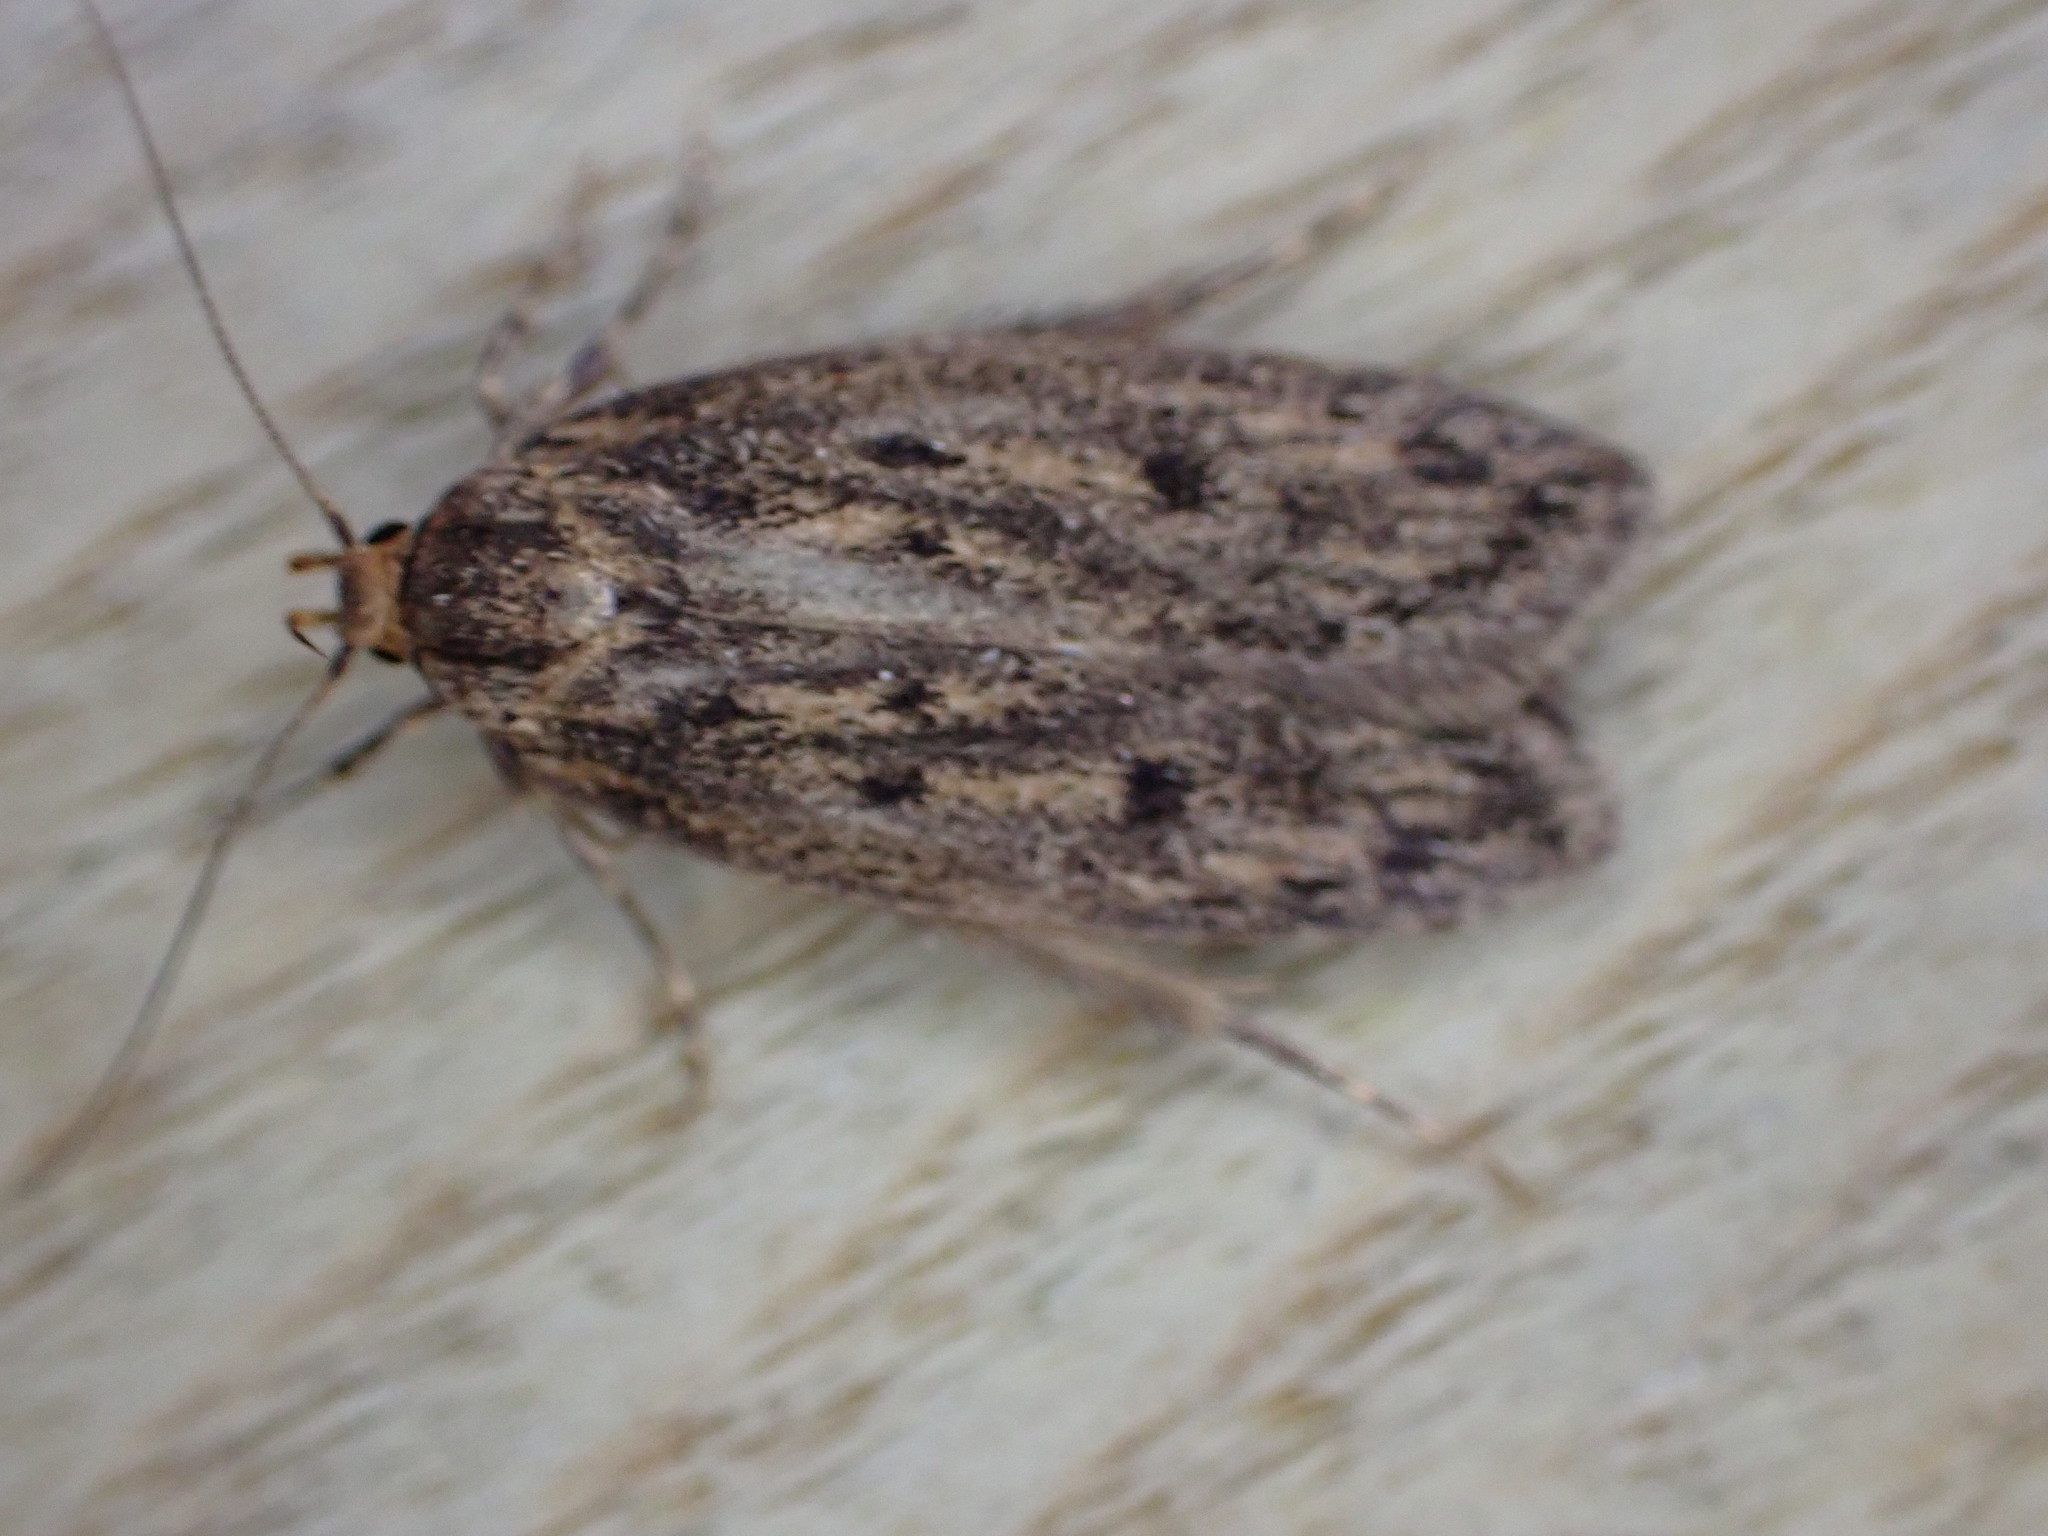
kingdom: Animalia
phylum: Arthropoda
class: Insecta
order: Lepidoptera
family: Oecophoridae
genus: Hofmannophila
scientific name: Hofmannophila pseudospretella
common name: Brown house moth
